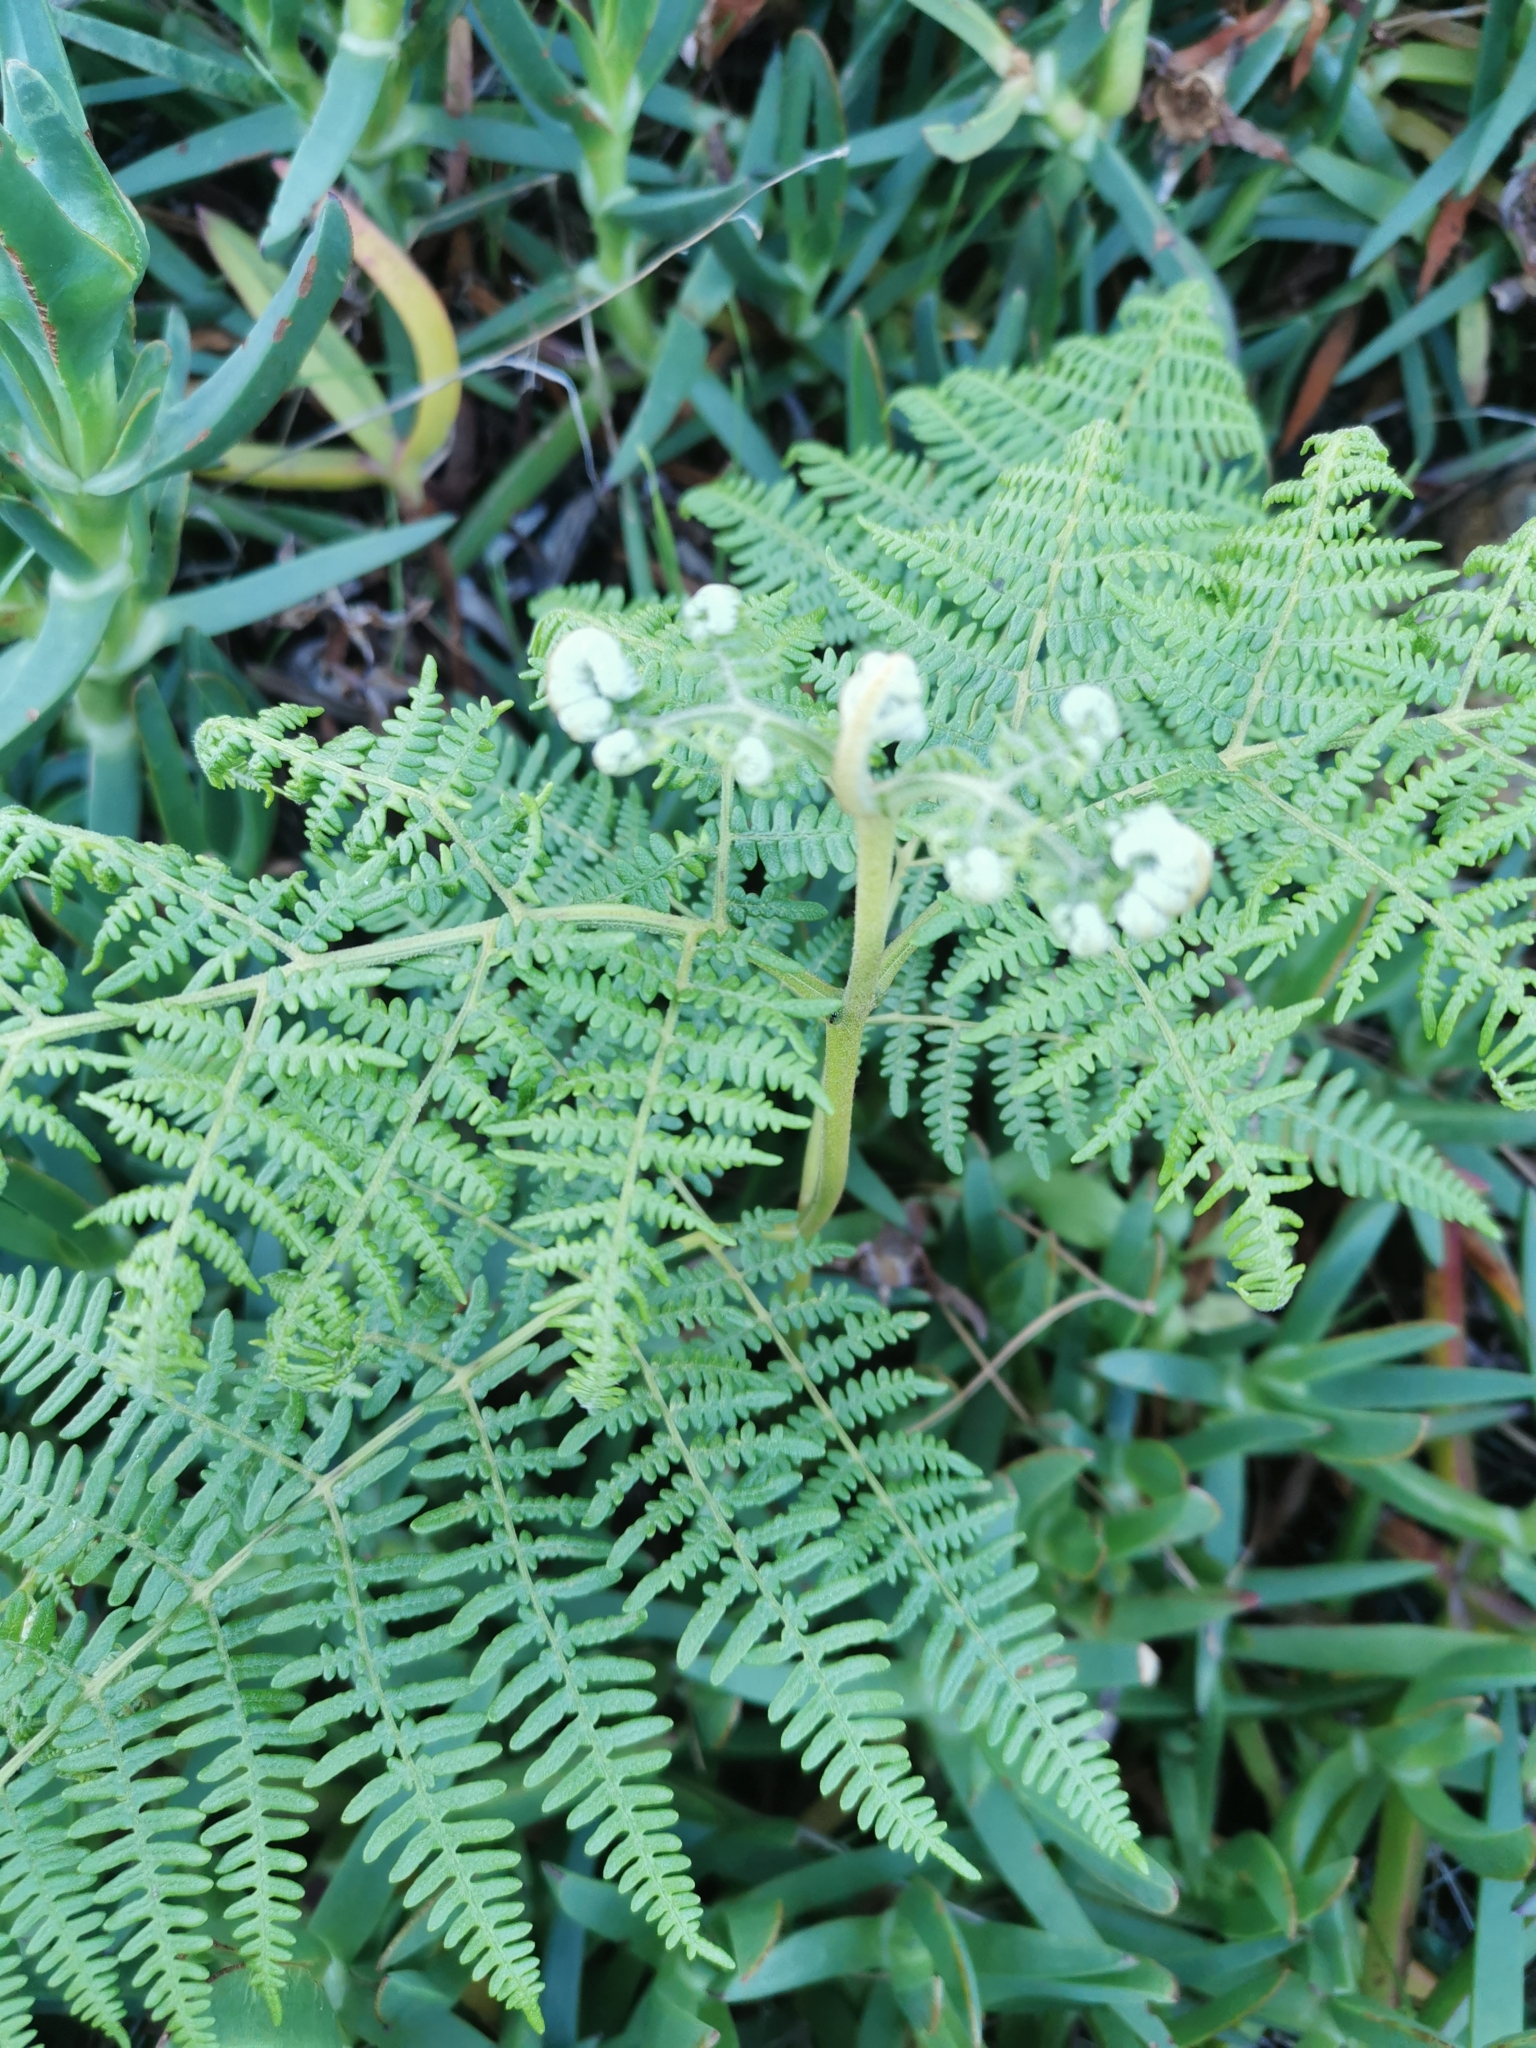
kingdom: Plantae
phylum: Tracheophyta
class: Polypodiopsida
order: Polypodiales
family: Dennstaedtiaceae
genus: Pteridium
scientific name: Pteridium aquilinum
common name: Bracken
